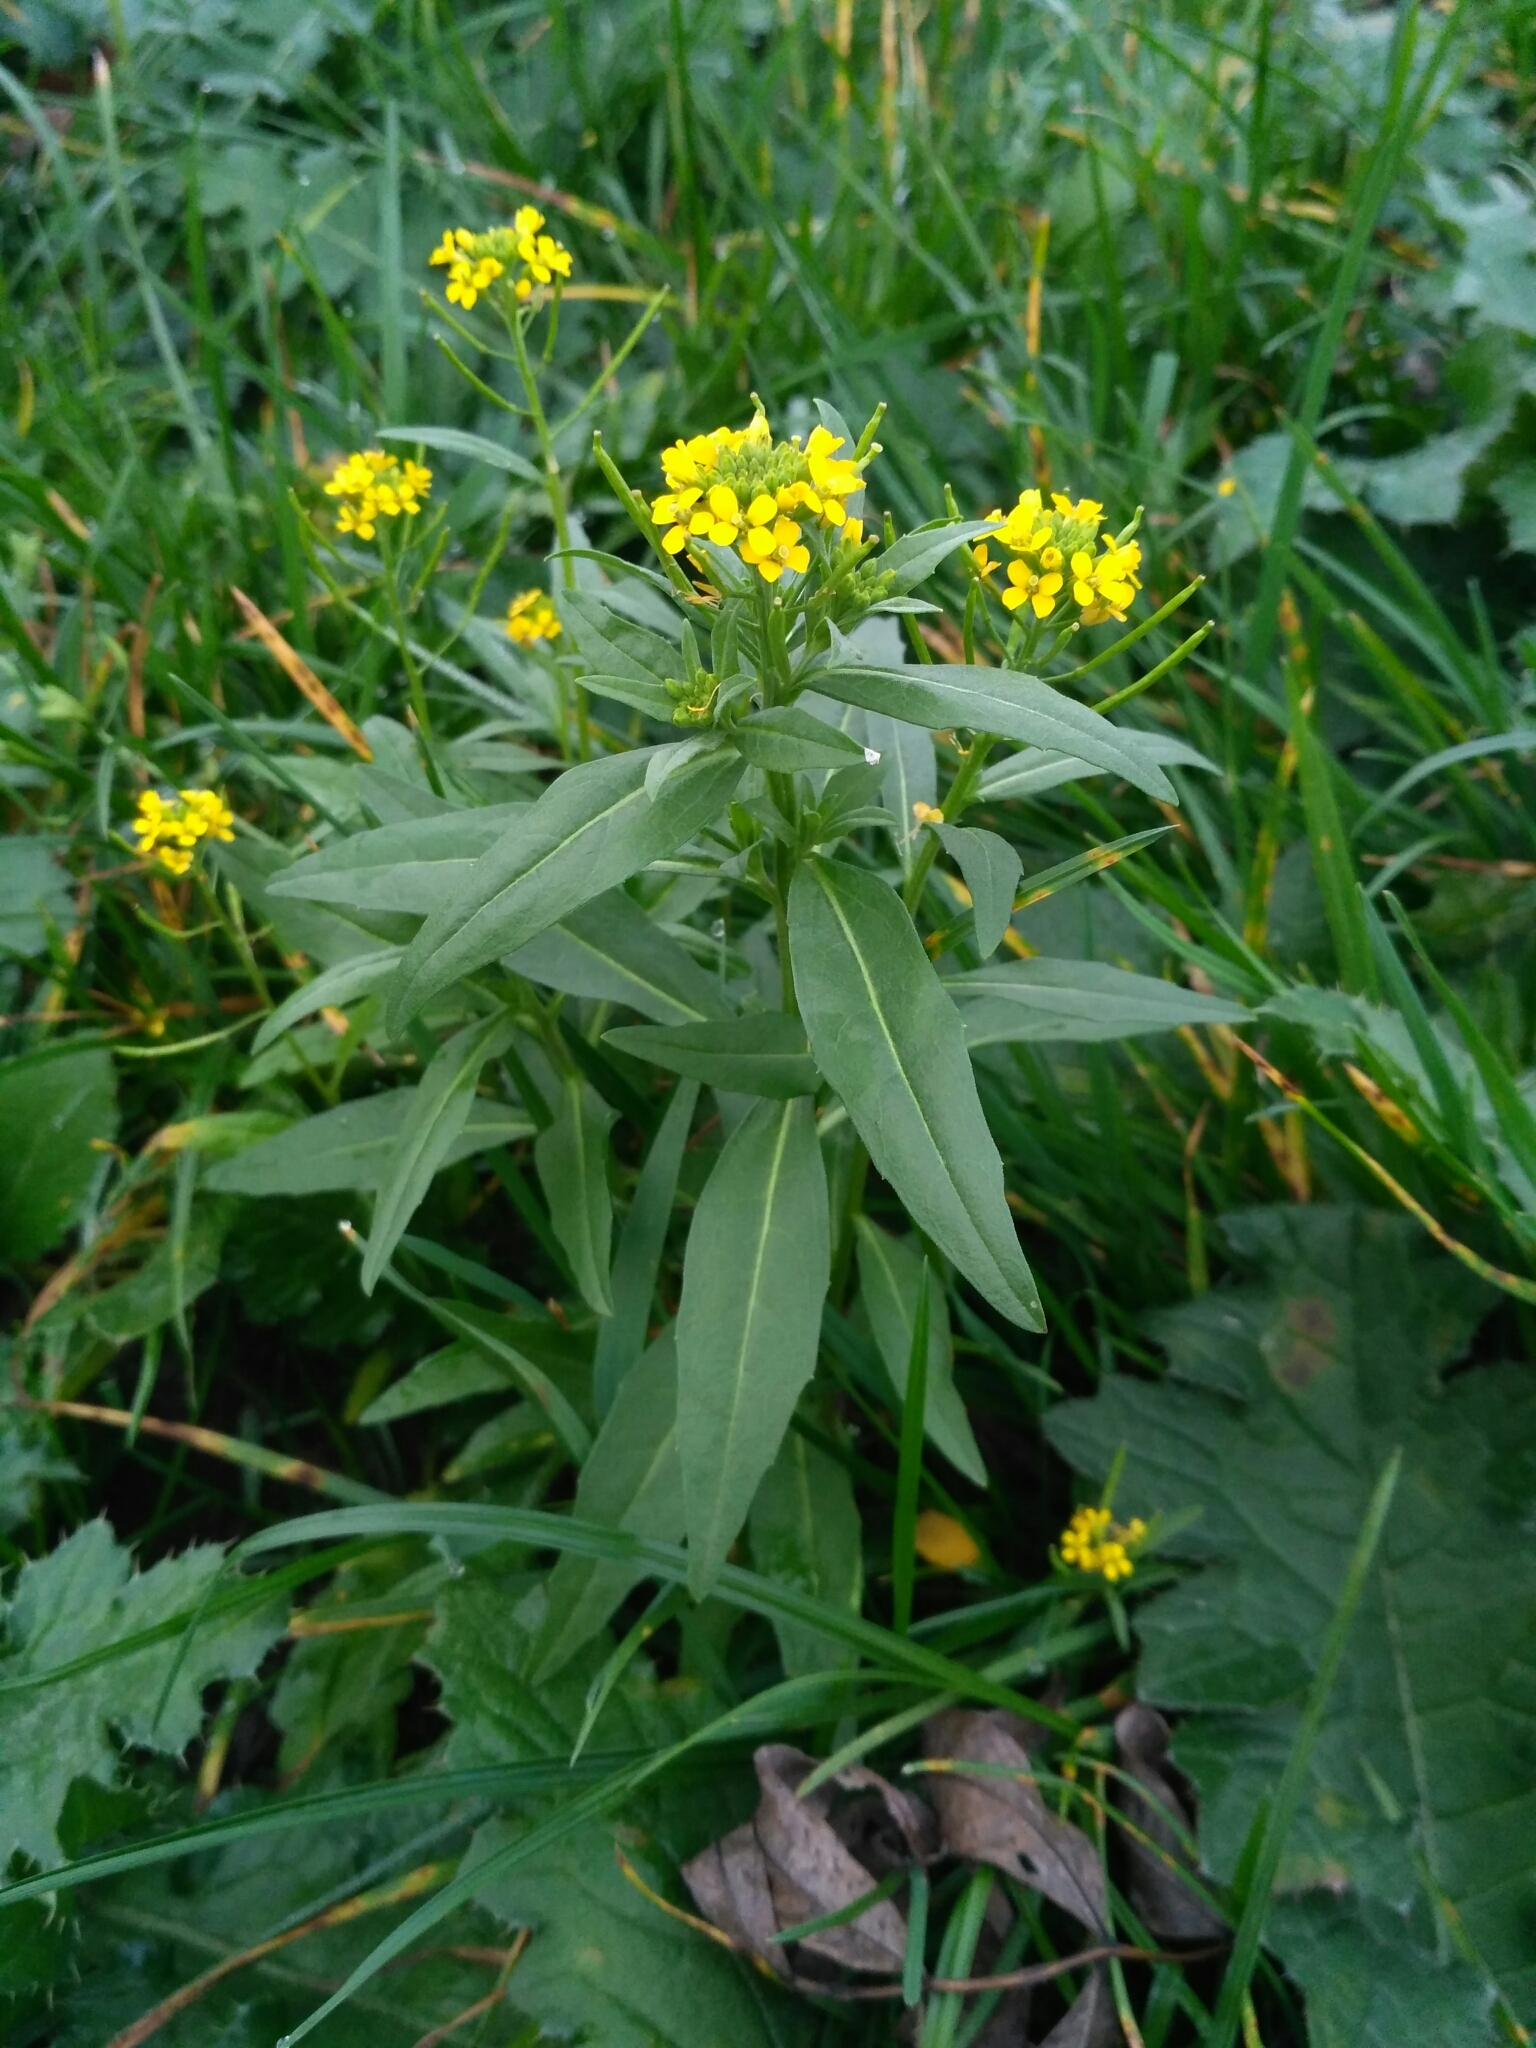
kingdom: Plantae
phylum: Tracheophyta
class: Magnoliopsida
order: Brassicales
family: Brassicaceae
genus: Erysimum
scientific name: Erysimum cheiranthoides
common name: Treacle mustard
